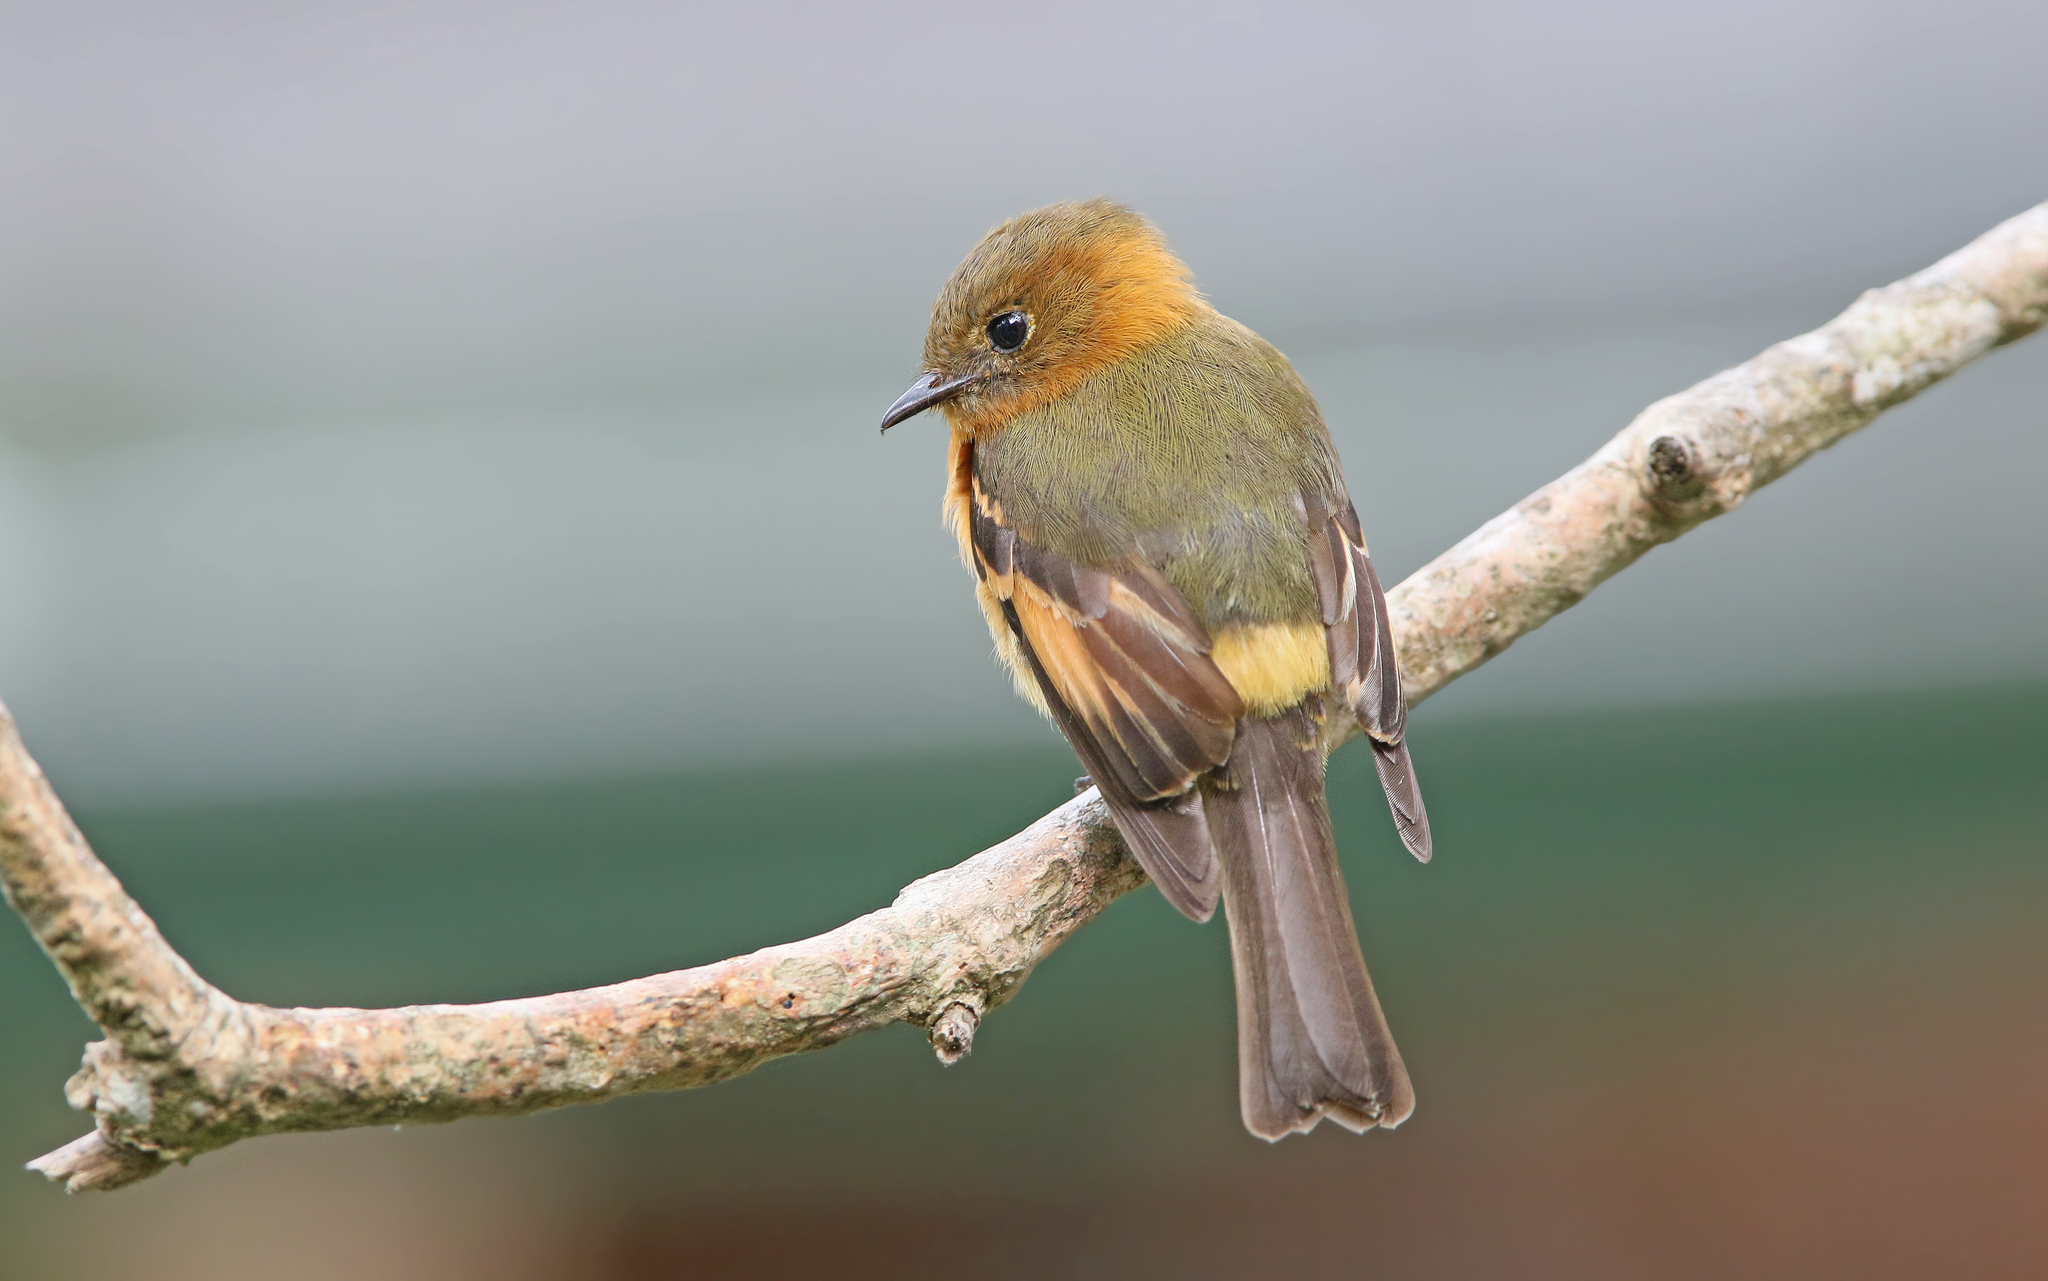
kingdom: Animalia
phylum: Chordata
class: Aves
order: Passeriformes
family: Tyrannidae
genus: Pyrrhomyias
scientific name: Pyrrhomyias cinnamomeus
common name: Cinnamon flycatcher
